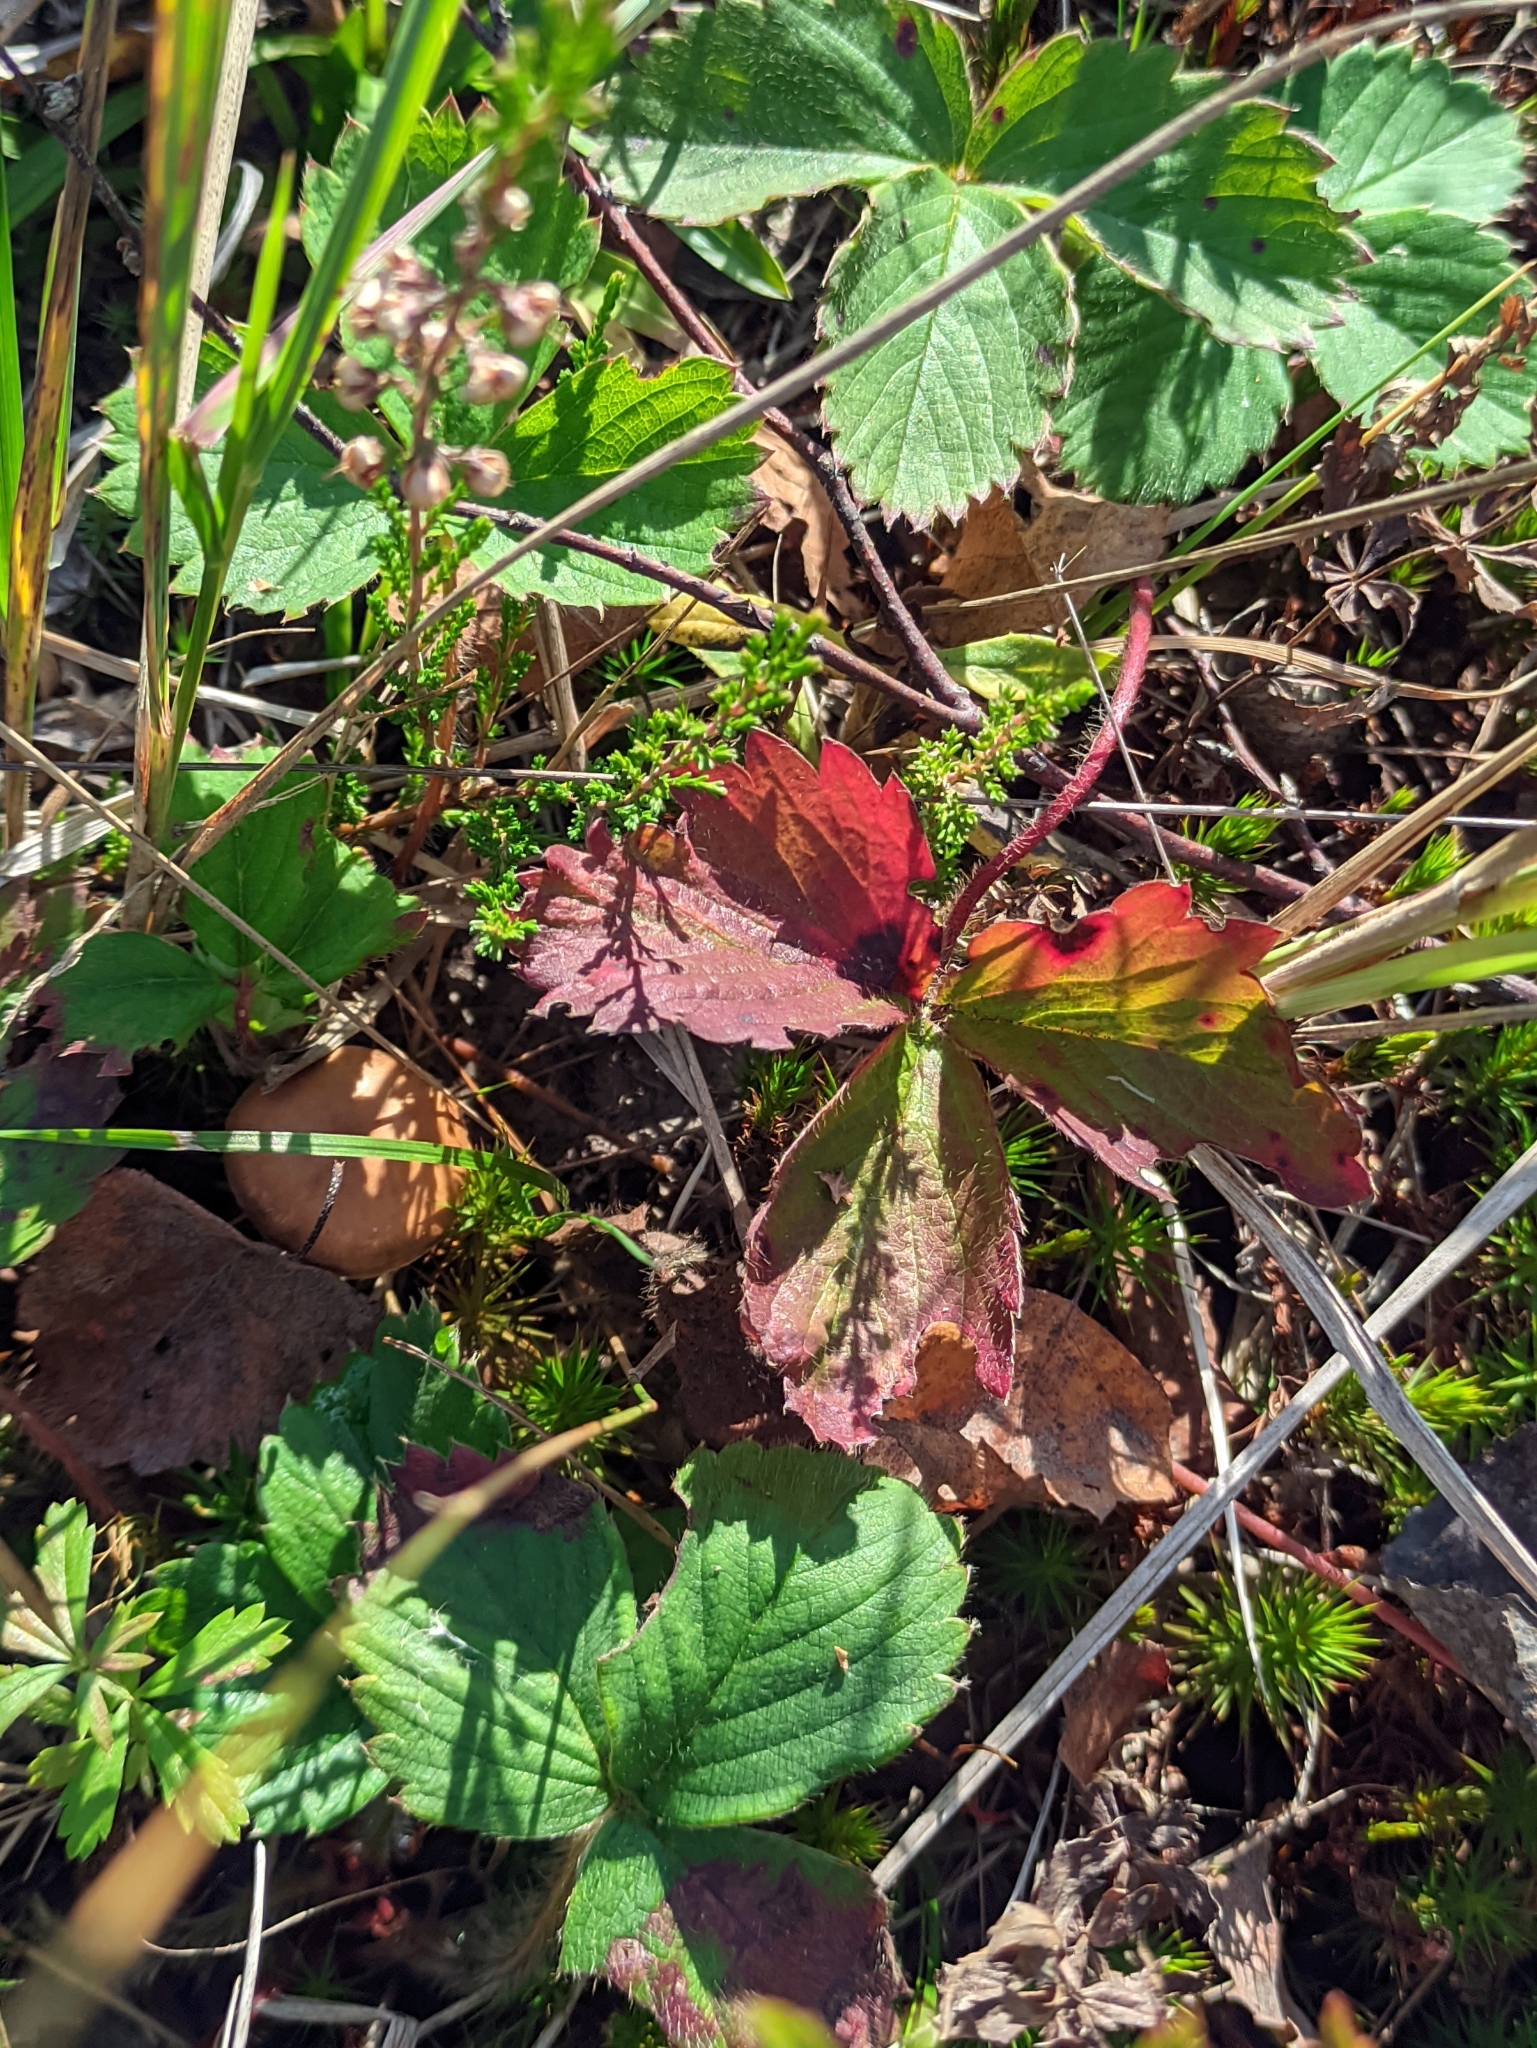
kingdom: Plantae
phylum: Tracheophyta
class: Magnoliopsida
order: Rosales
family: Rosaceae
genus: Fragaria
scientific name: Fragaria vesca
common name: Wild strawberry
